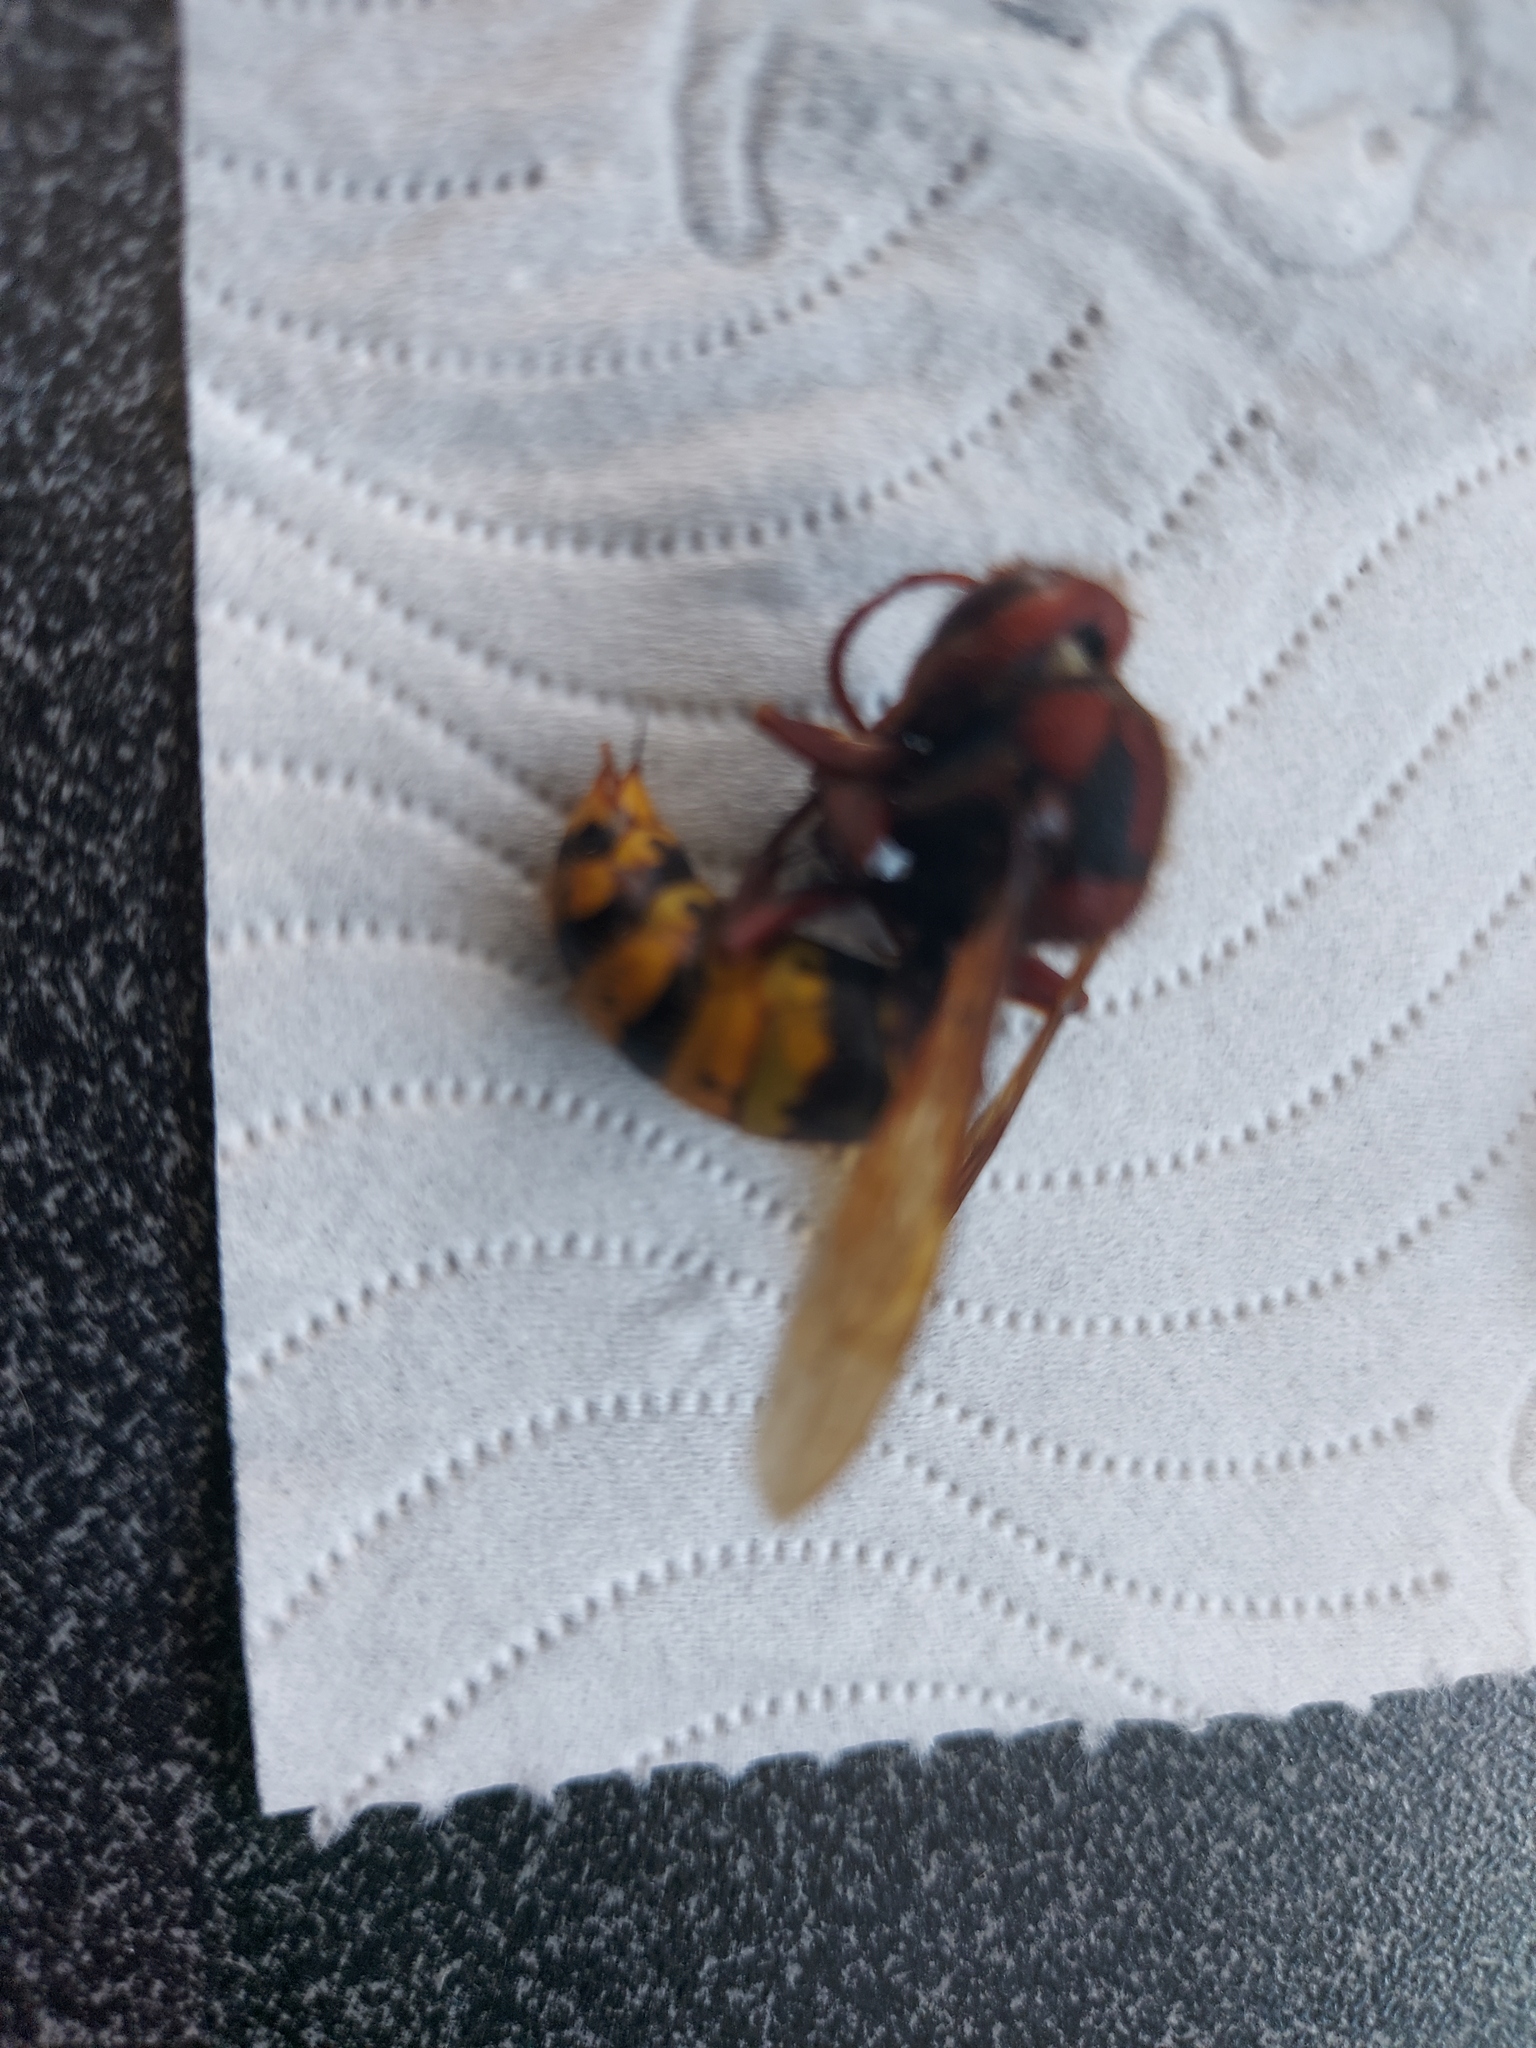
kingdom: Animalia
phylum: Arthropoda
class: Insecta
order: Hymenoptera
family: Vespidae
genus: Vespa
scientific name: Vespa crabro
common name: Hornet
